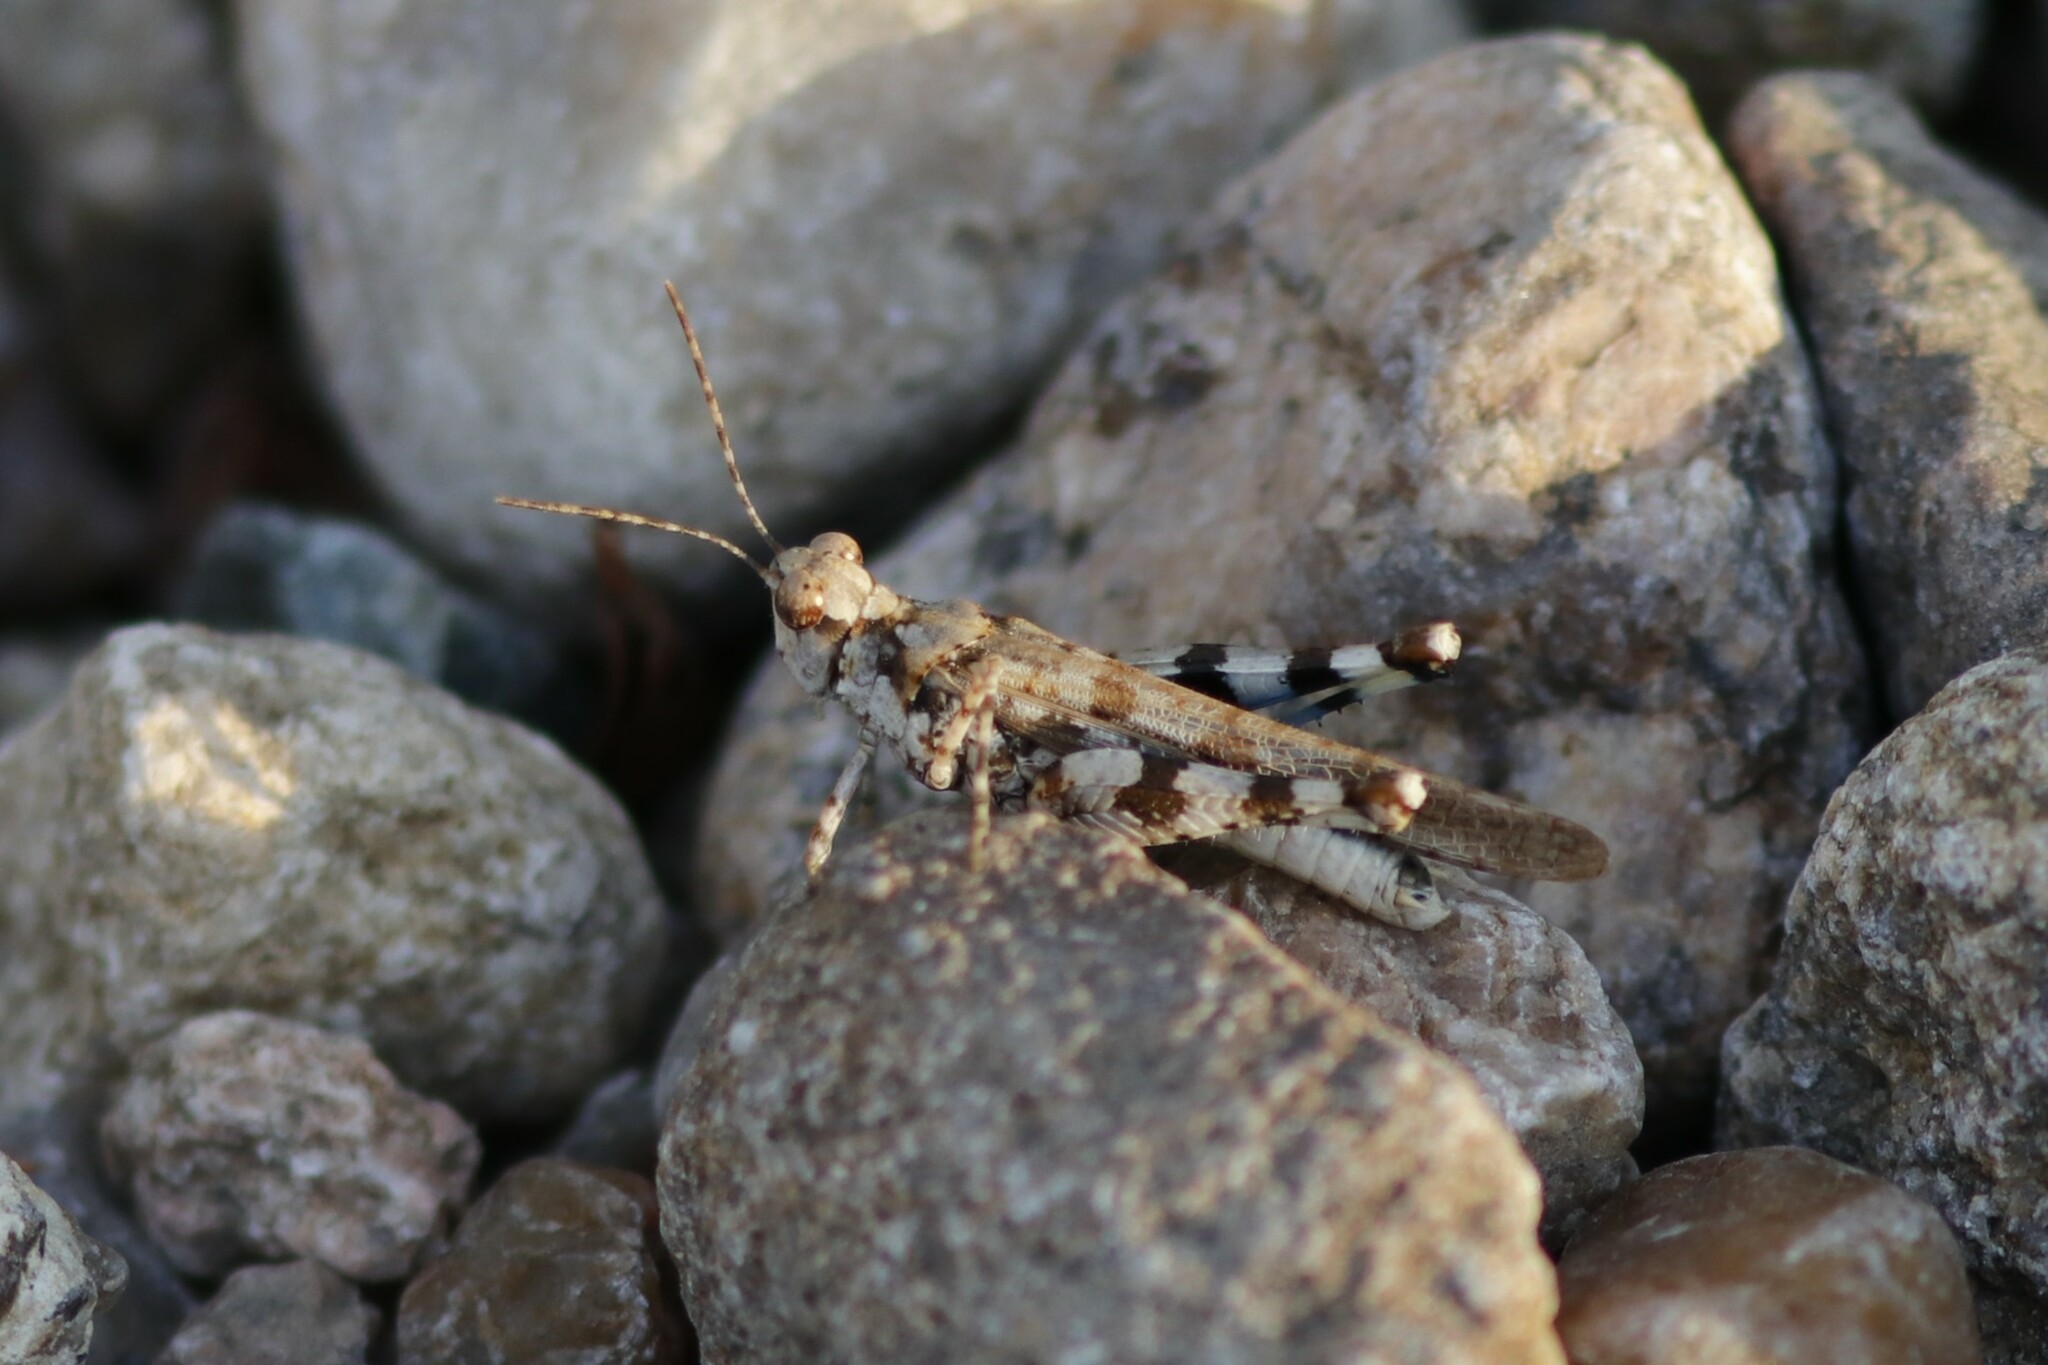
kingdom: Animalia
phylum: Arthropoda
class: Insecta
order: Orthoptera
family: Acrididae
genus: Conipoda
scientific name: Conipoda pallida
